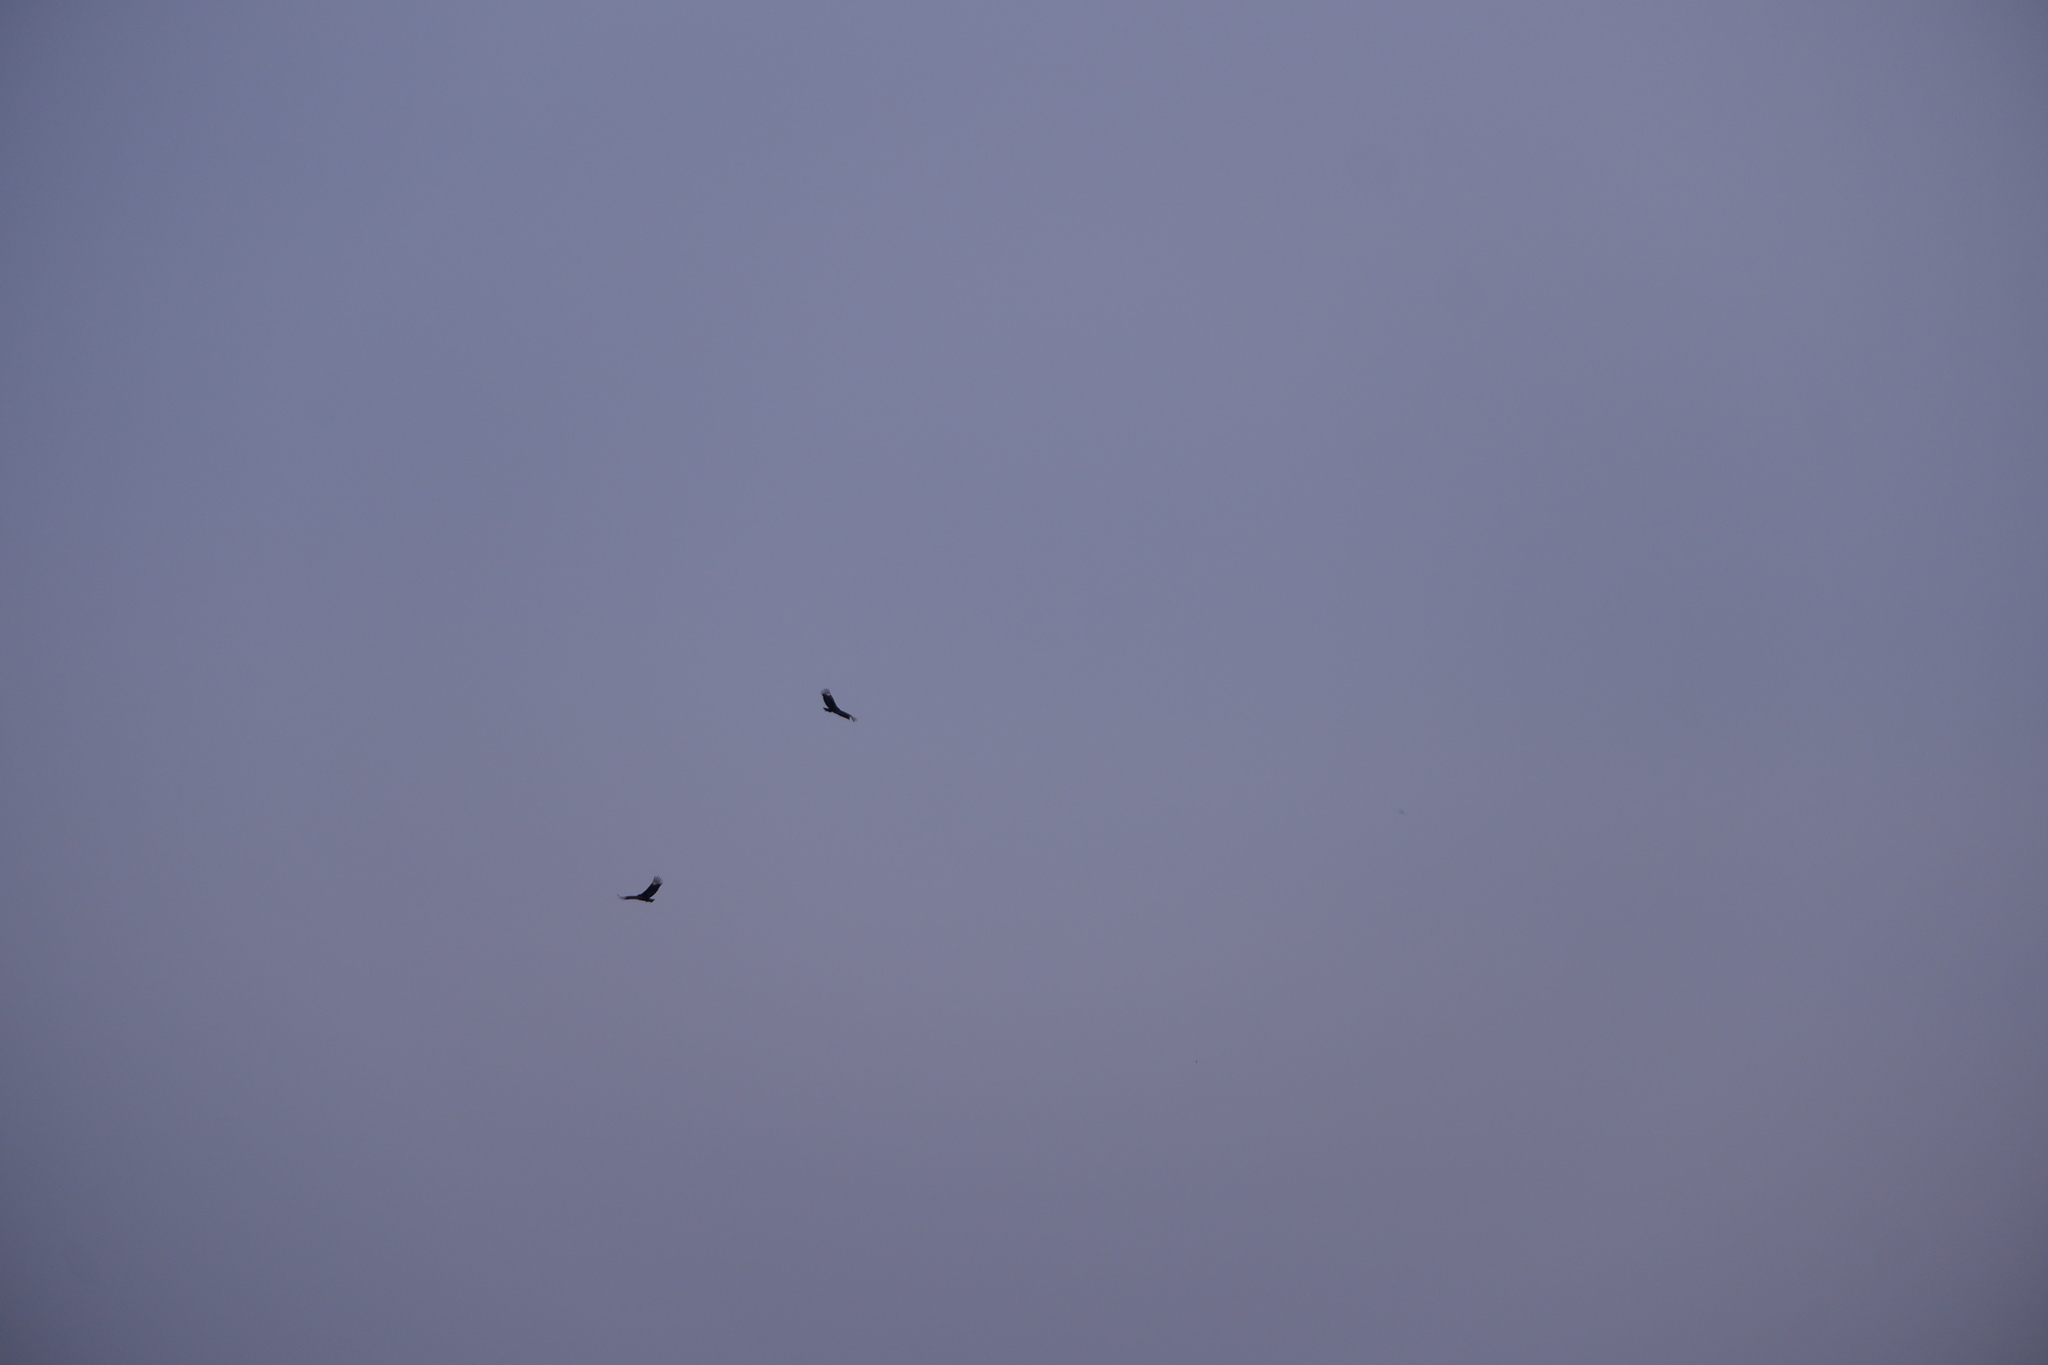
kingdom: Animalia
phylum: Chordata
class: Aves
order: Accipitriformes
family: Cathartidae
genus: Coragyps
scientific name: Coragyps atratus
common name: Black vulture
